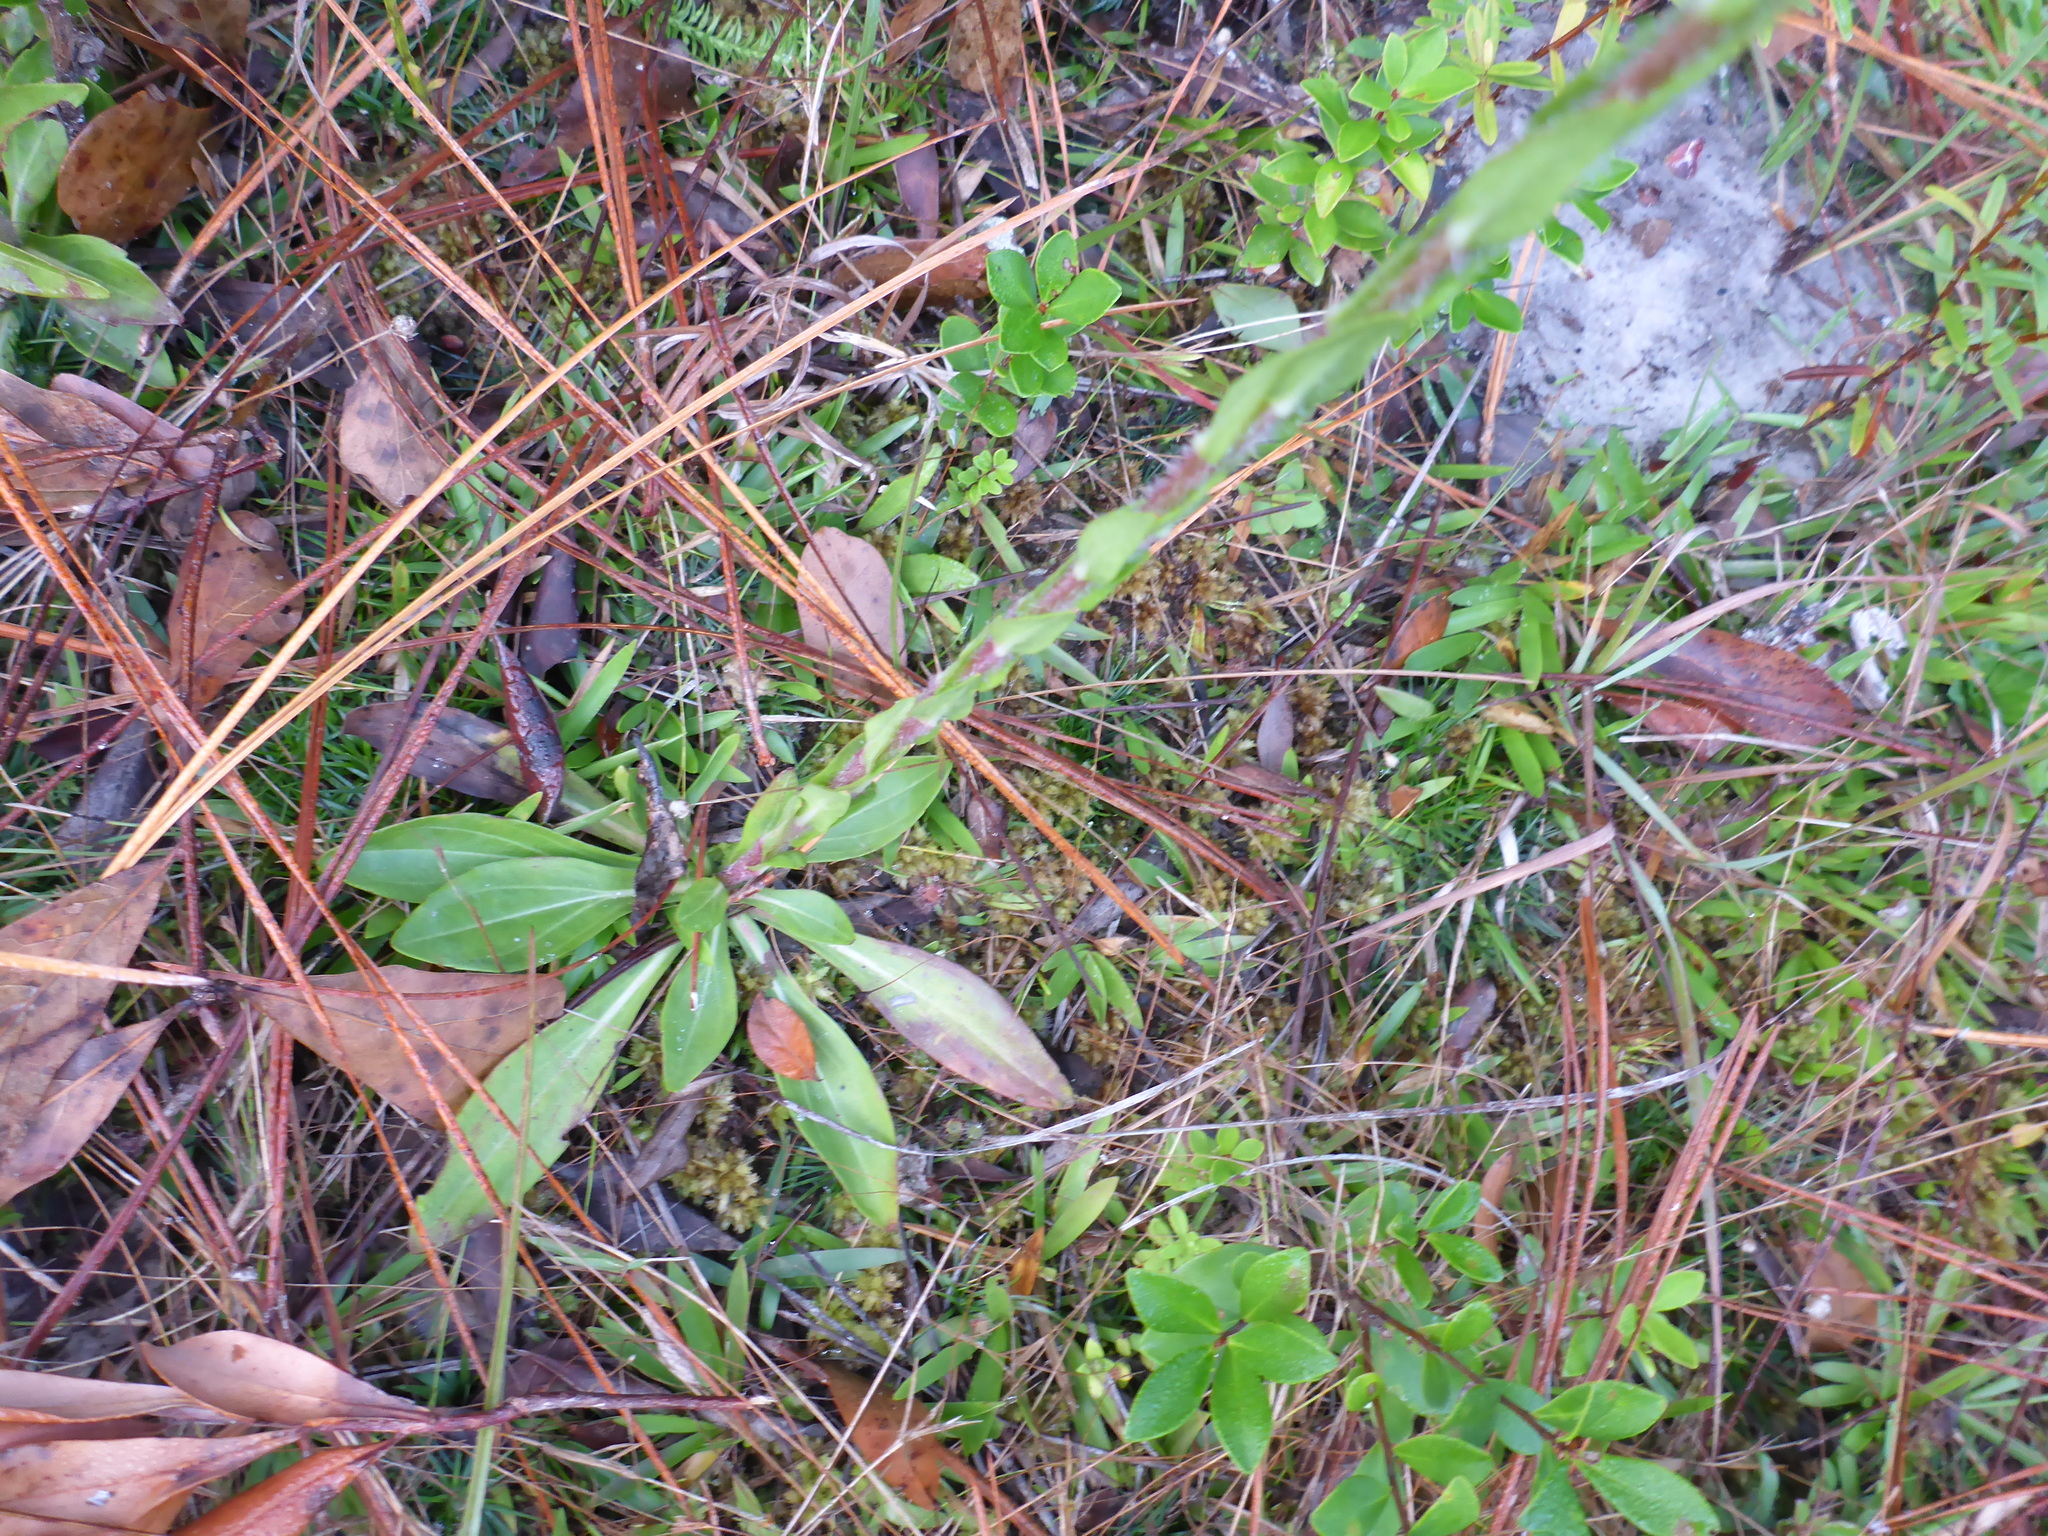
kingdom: Plantae
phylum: Tracheophyta
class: Magnoliopsida
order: Asterales
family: Asteraceae
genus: Carphephorus
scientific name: Carphephorus paniculatus
